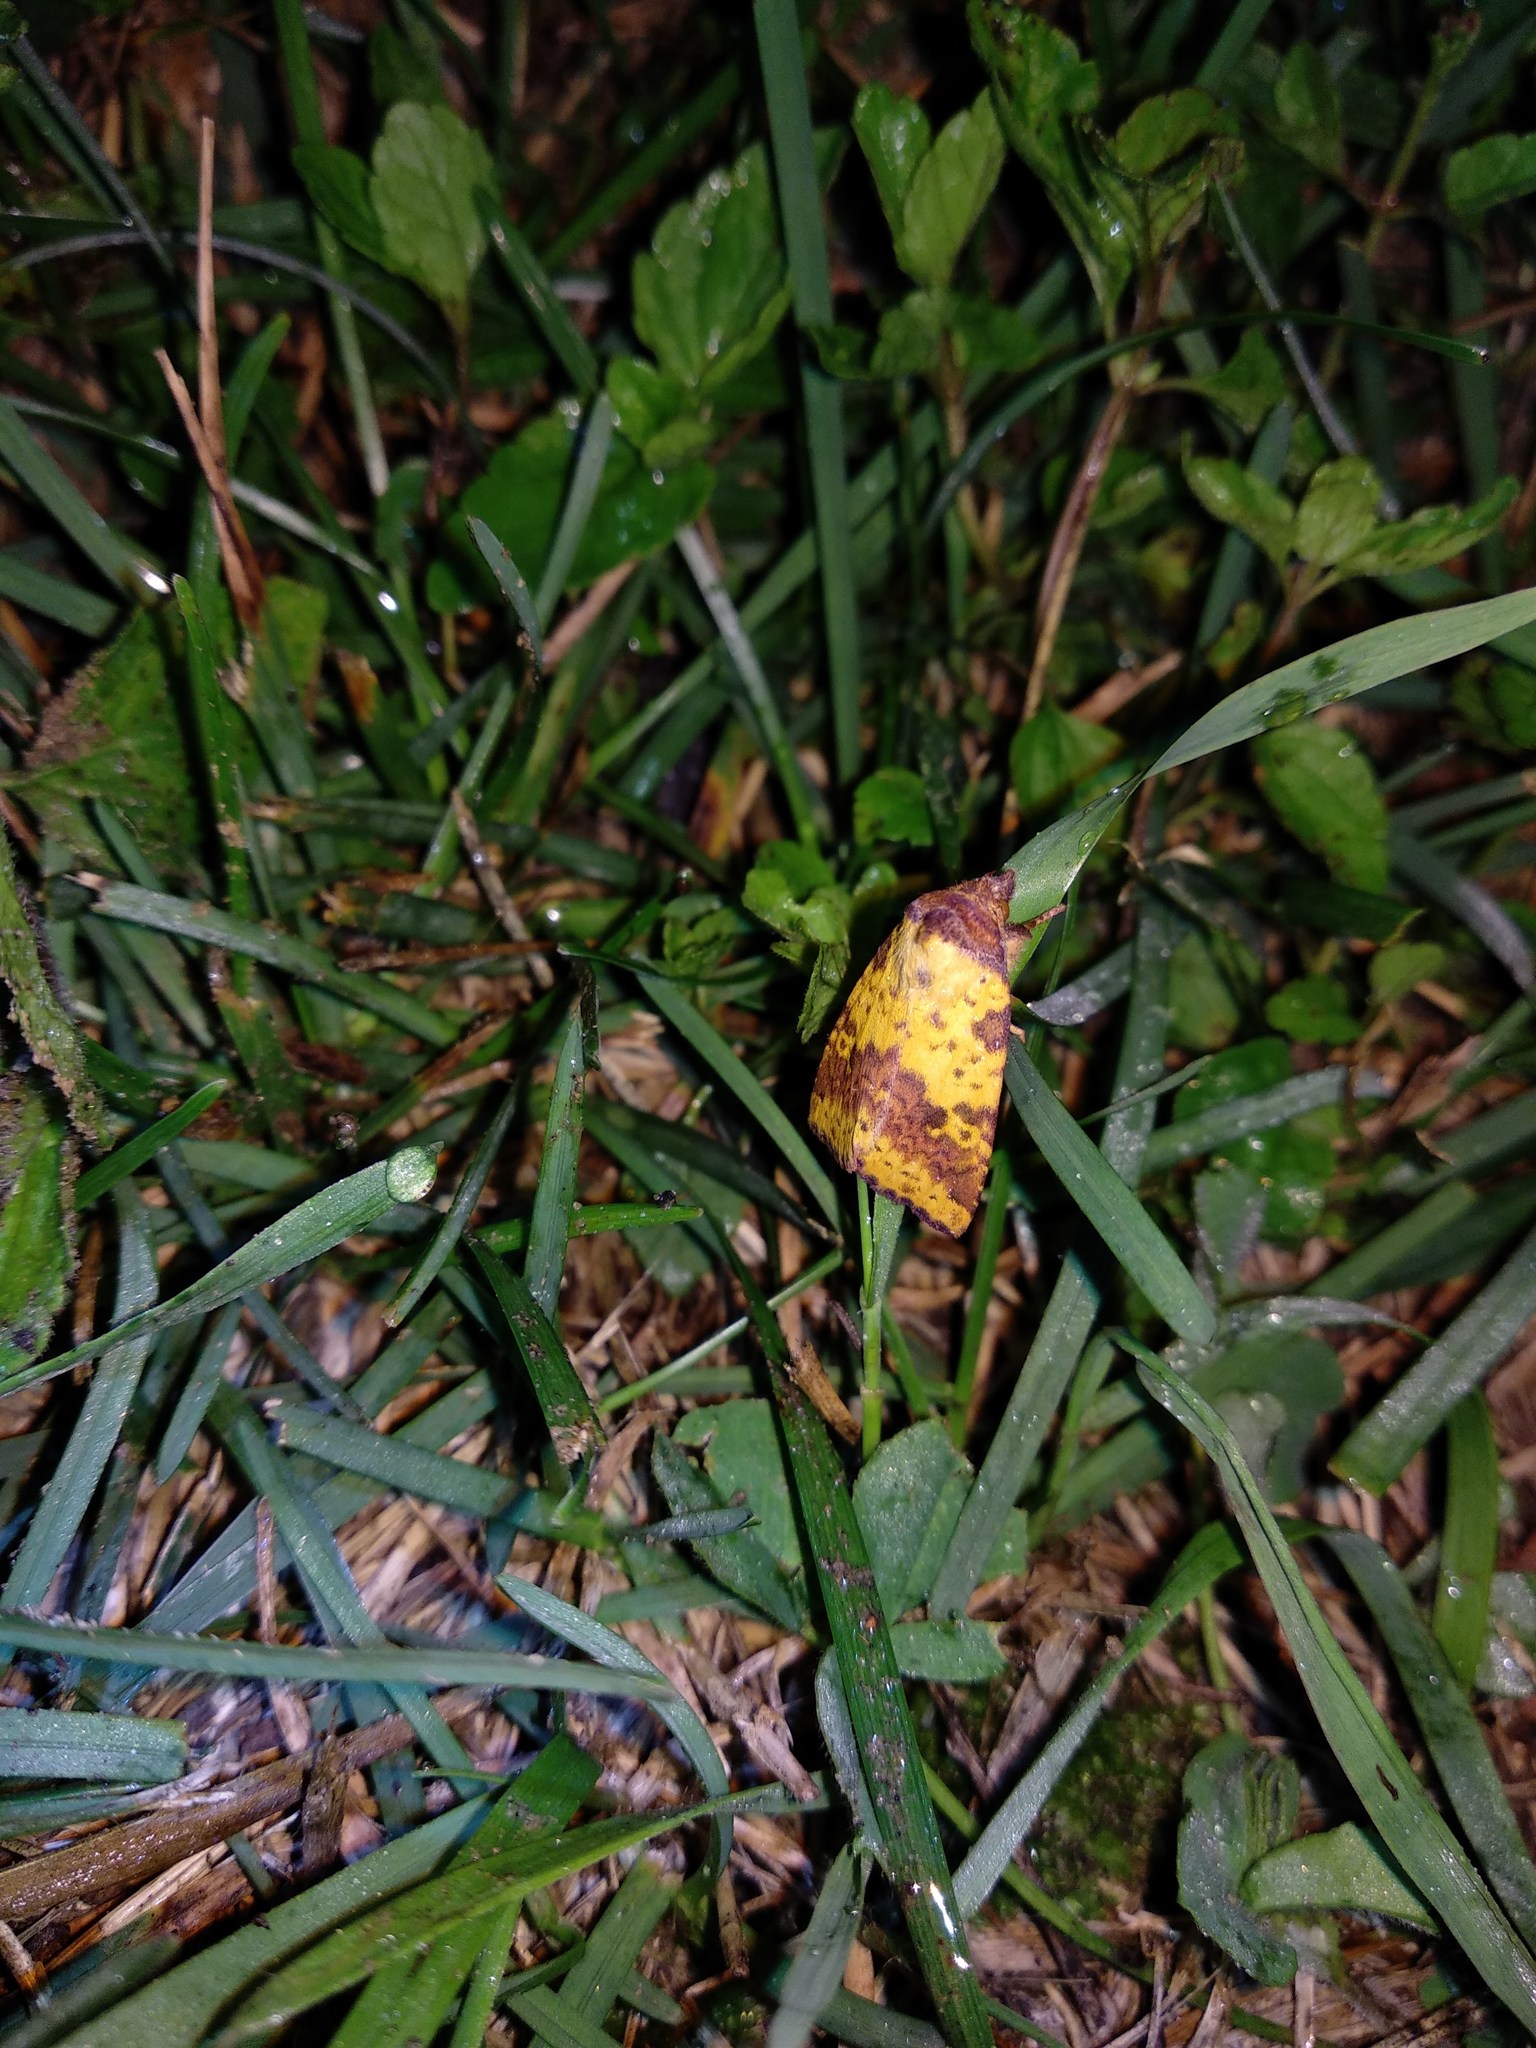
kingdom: Animalia
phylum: Arthropoda
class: Insecta
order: Lepidoptera
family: Noctuidae
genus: Xanthia
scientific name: Xanthia togata
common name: Pink-barred sallow
